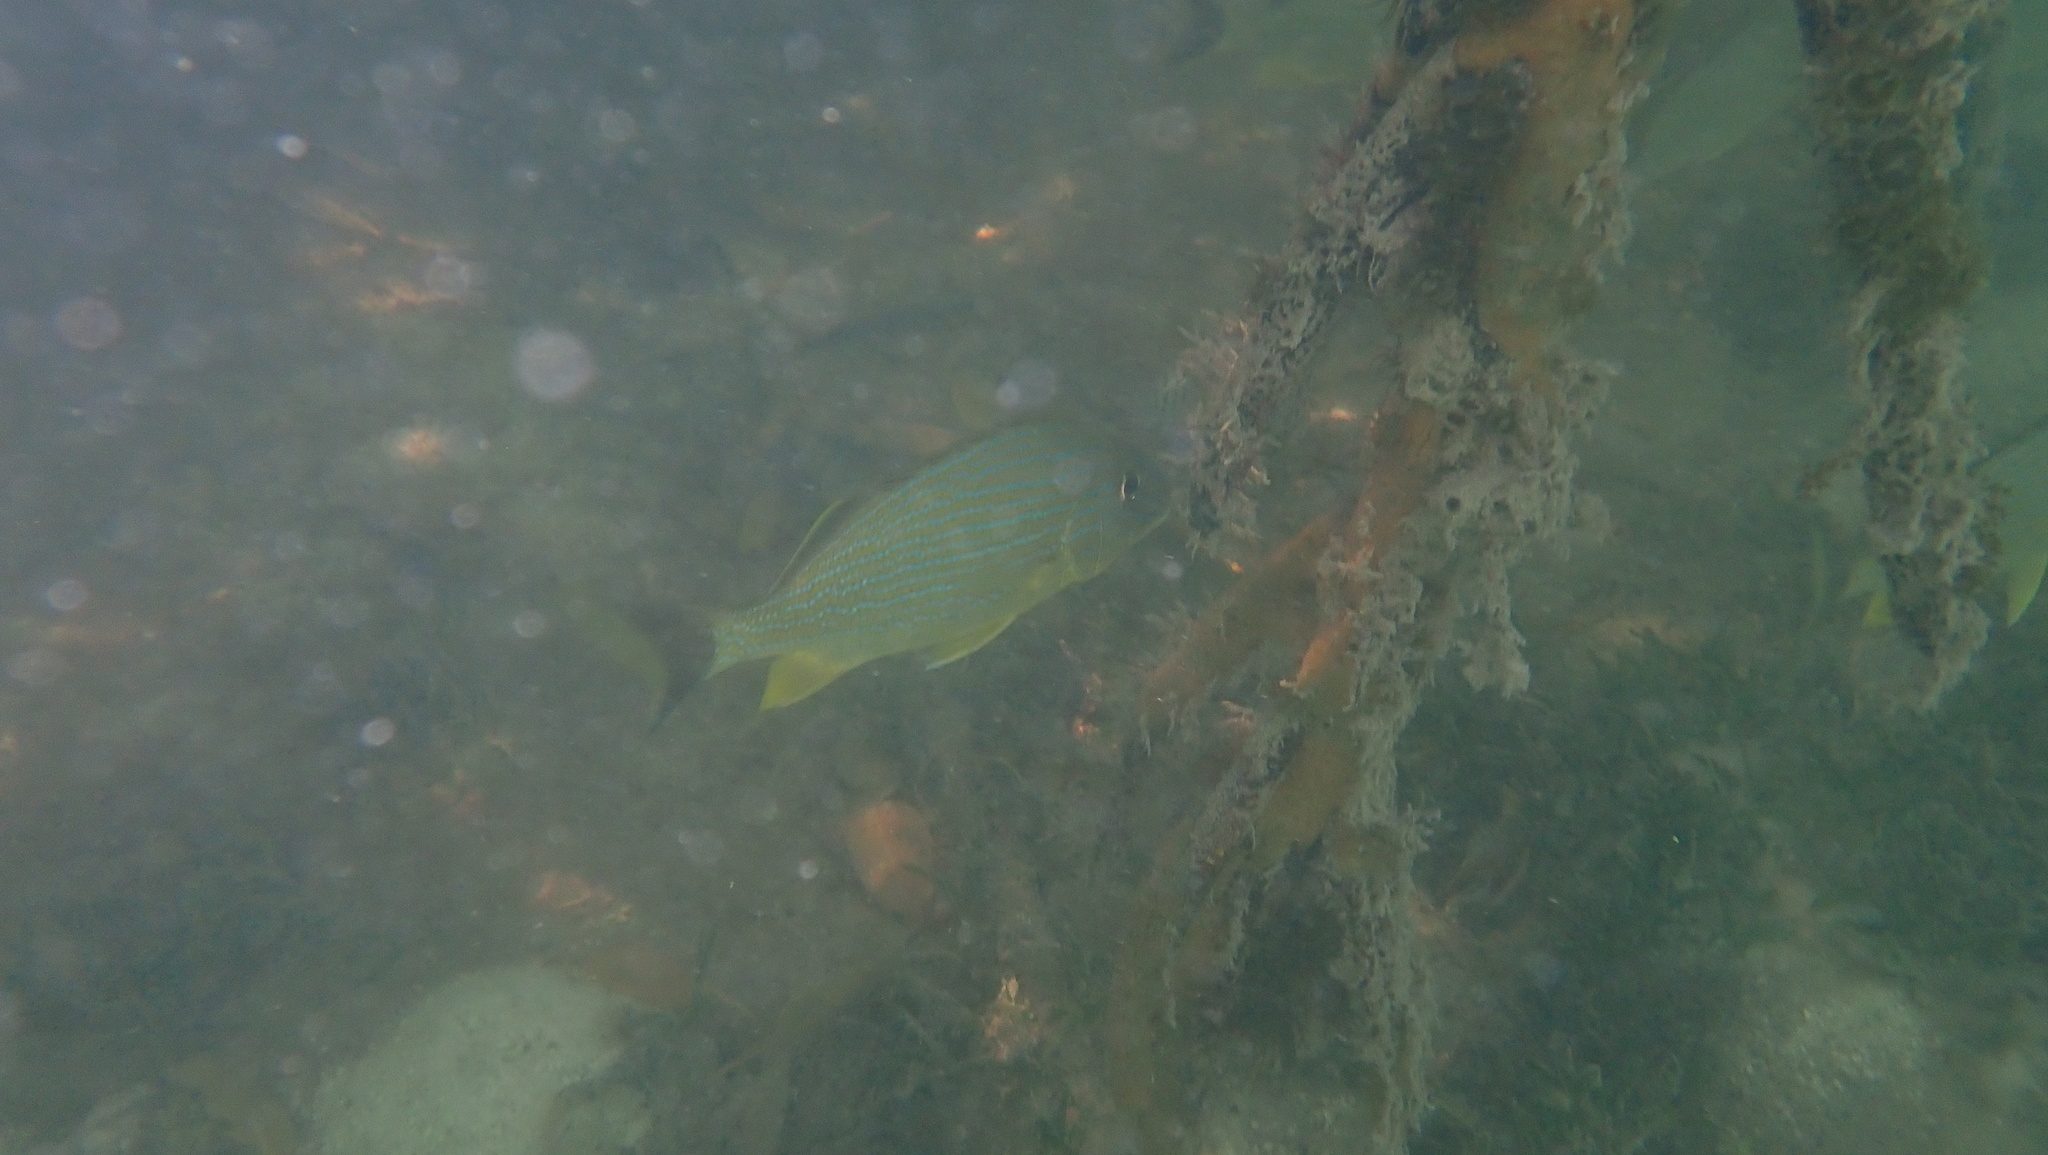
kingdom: Animalia
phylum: Chordata
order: Perciformes
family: Haemulidae
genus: Haemulon
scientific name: Haemulon sciurus
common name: Bluestriped grunt
